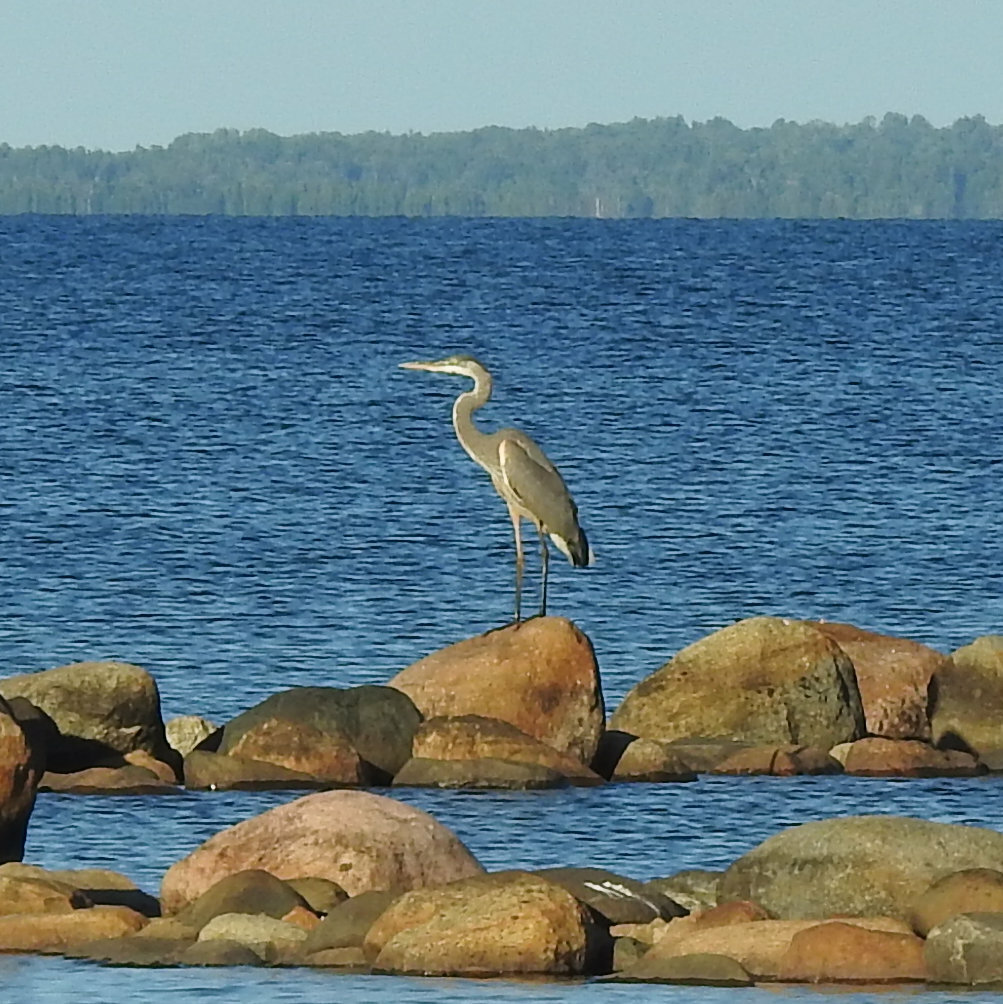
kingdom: Animalia
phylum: Chordata
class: Aves
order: Pelecaniformes
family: Ardeidae
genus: Ardea
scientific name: Ardea herodias
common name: Great blue heron
